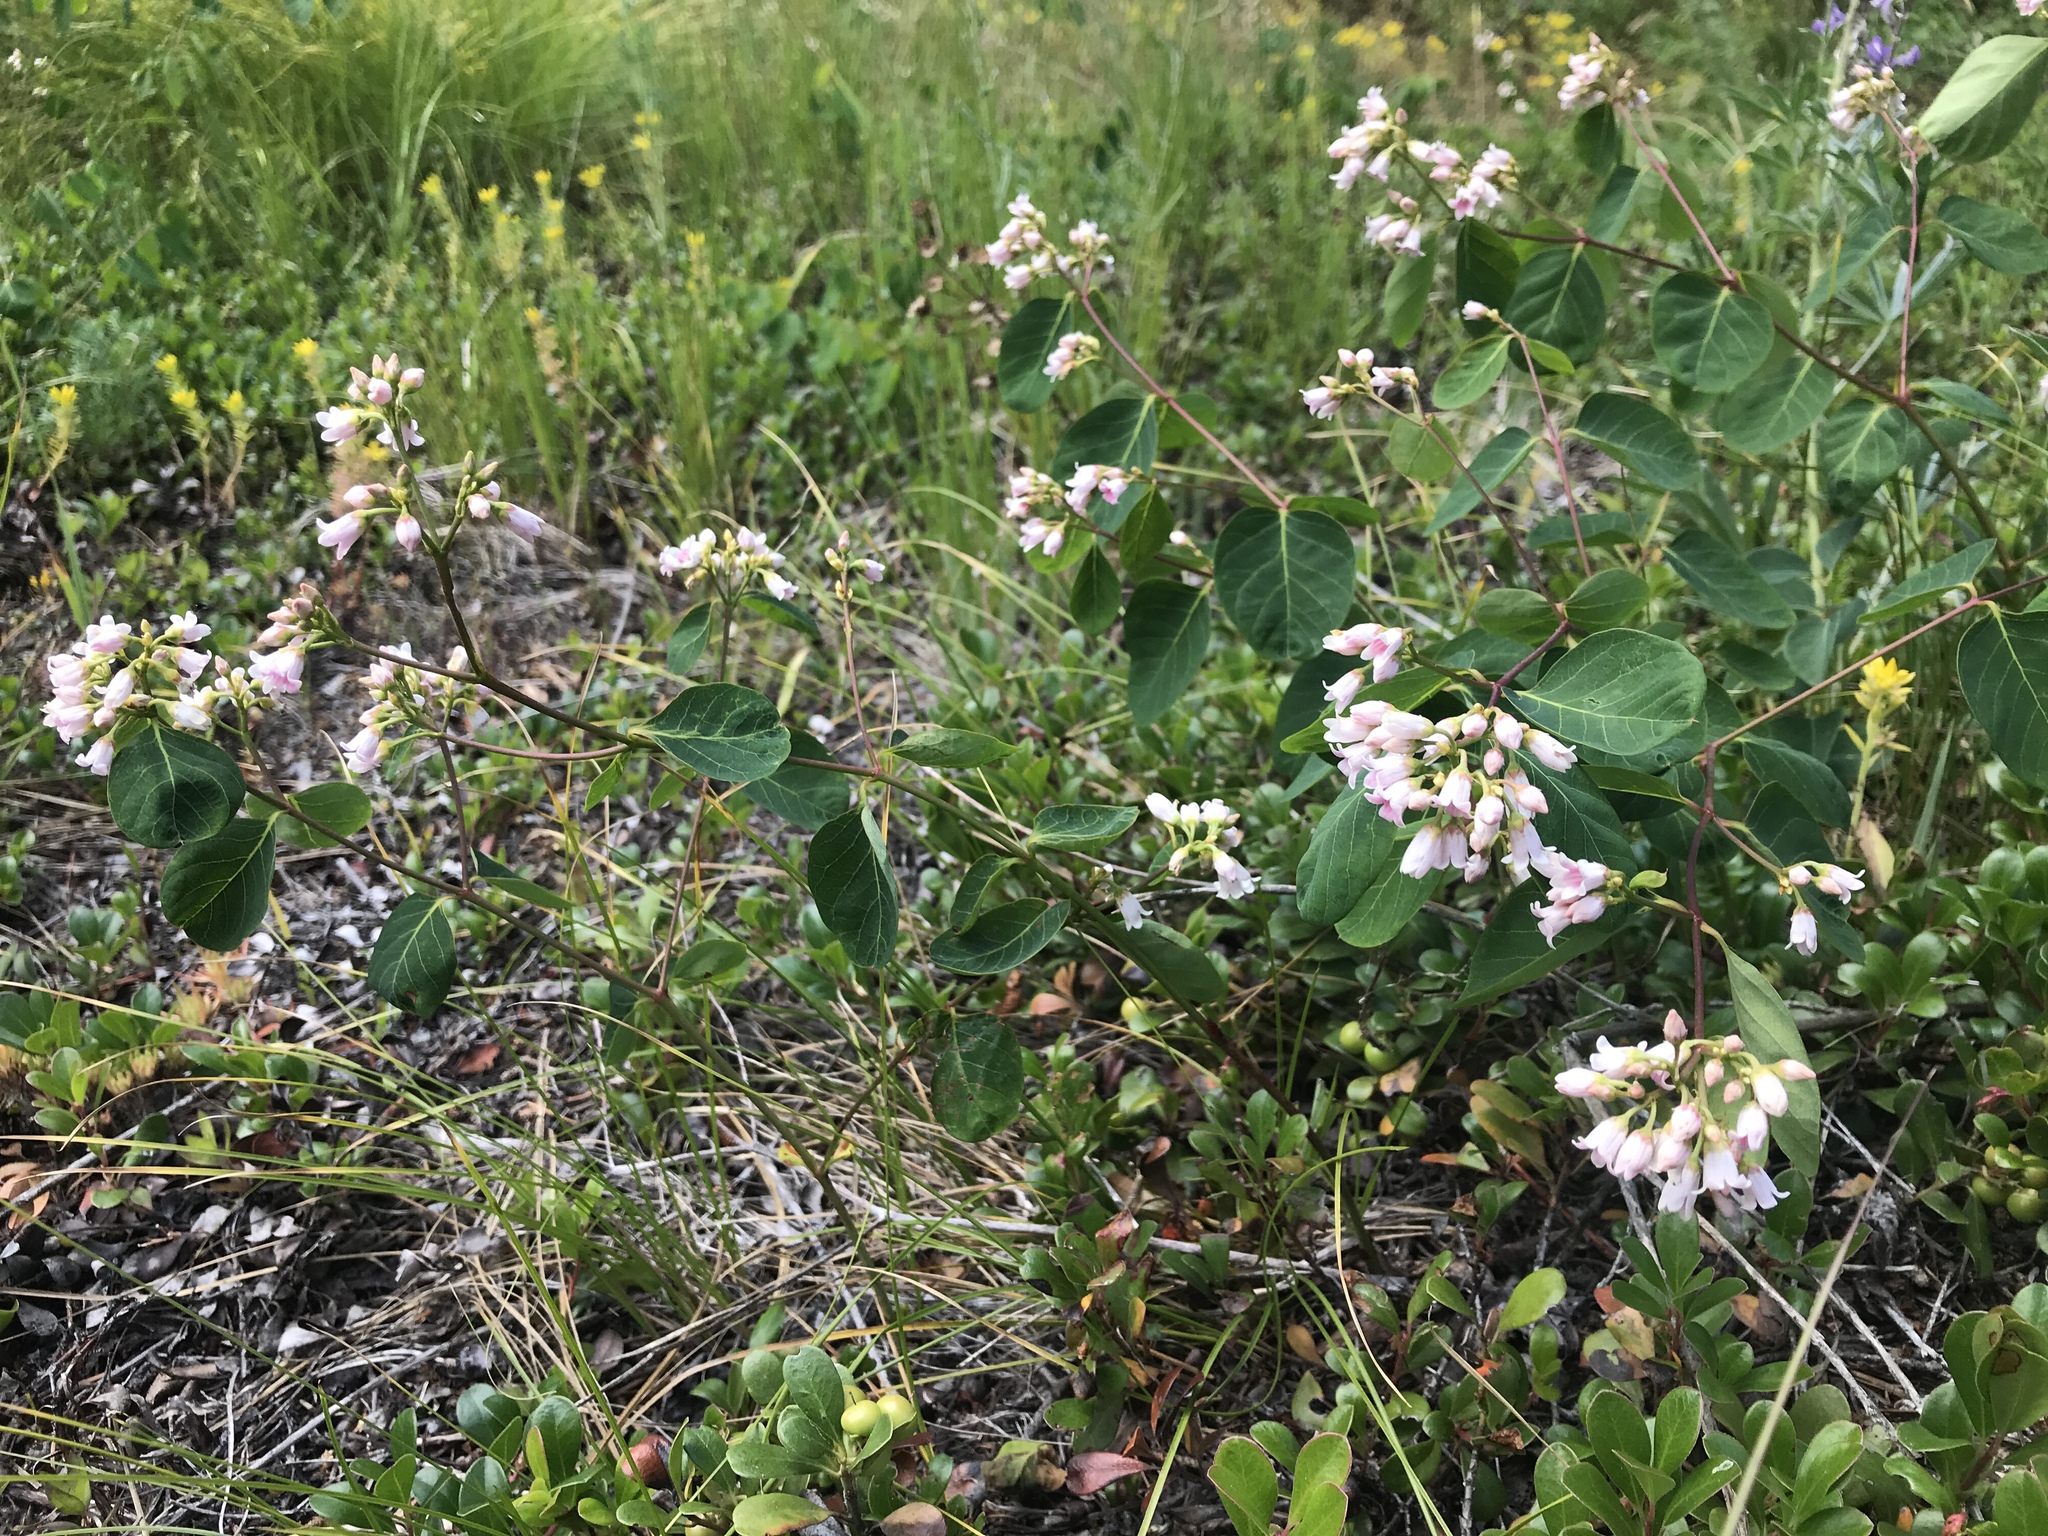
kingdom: Plantae
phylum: Tracheophyta
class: Magnoliopsida
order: Gentianales
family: Apocynaceae
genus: Apocynum
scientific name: Apocynum androsaemifolium
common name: Spreading dogbane
